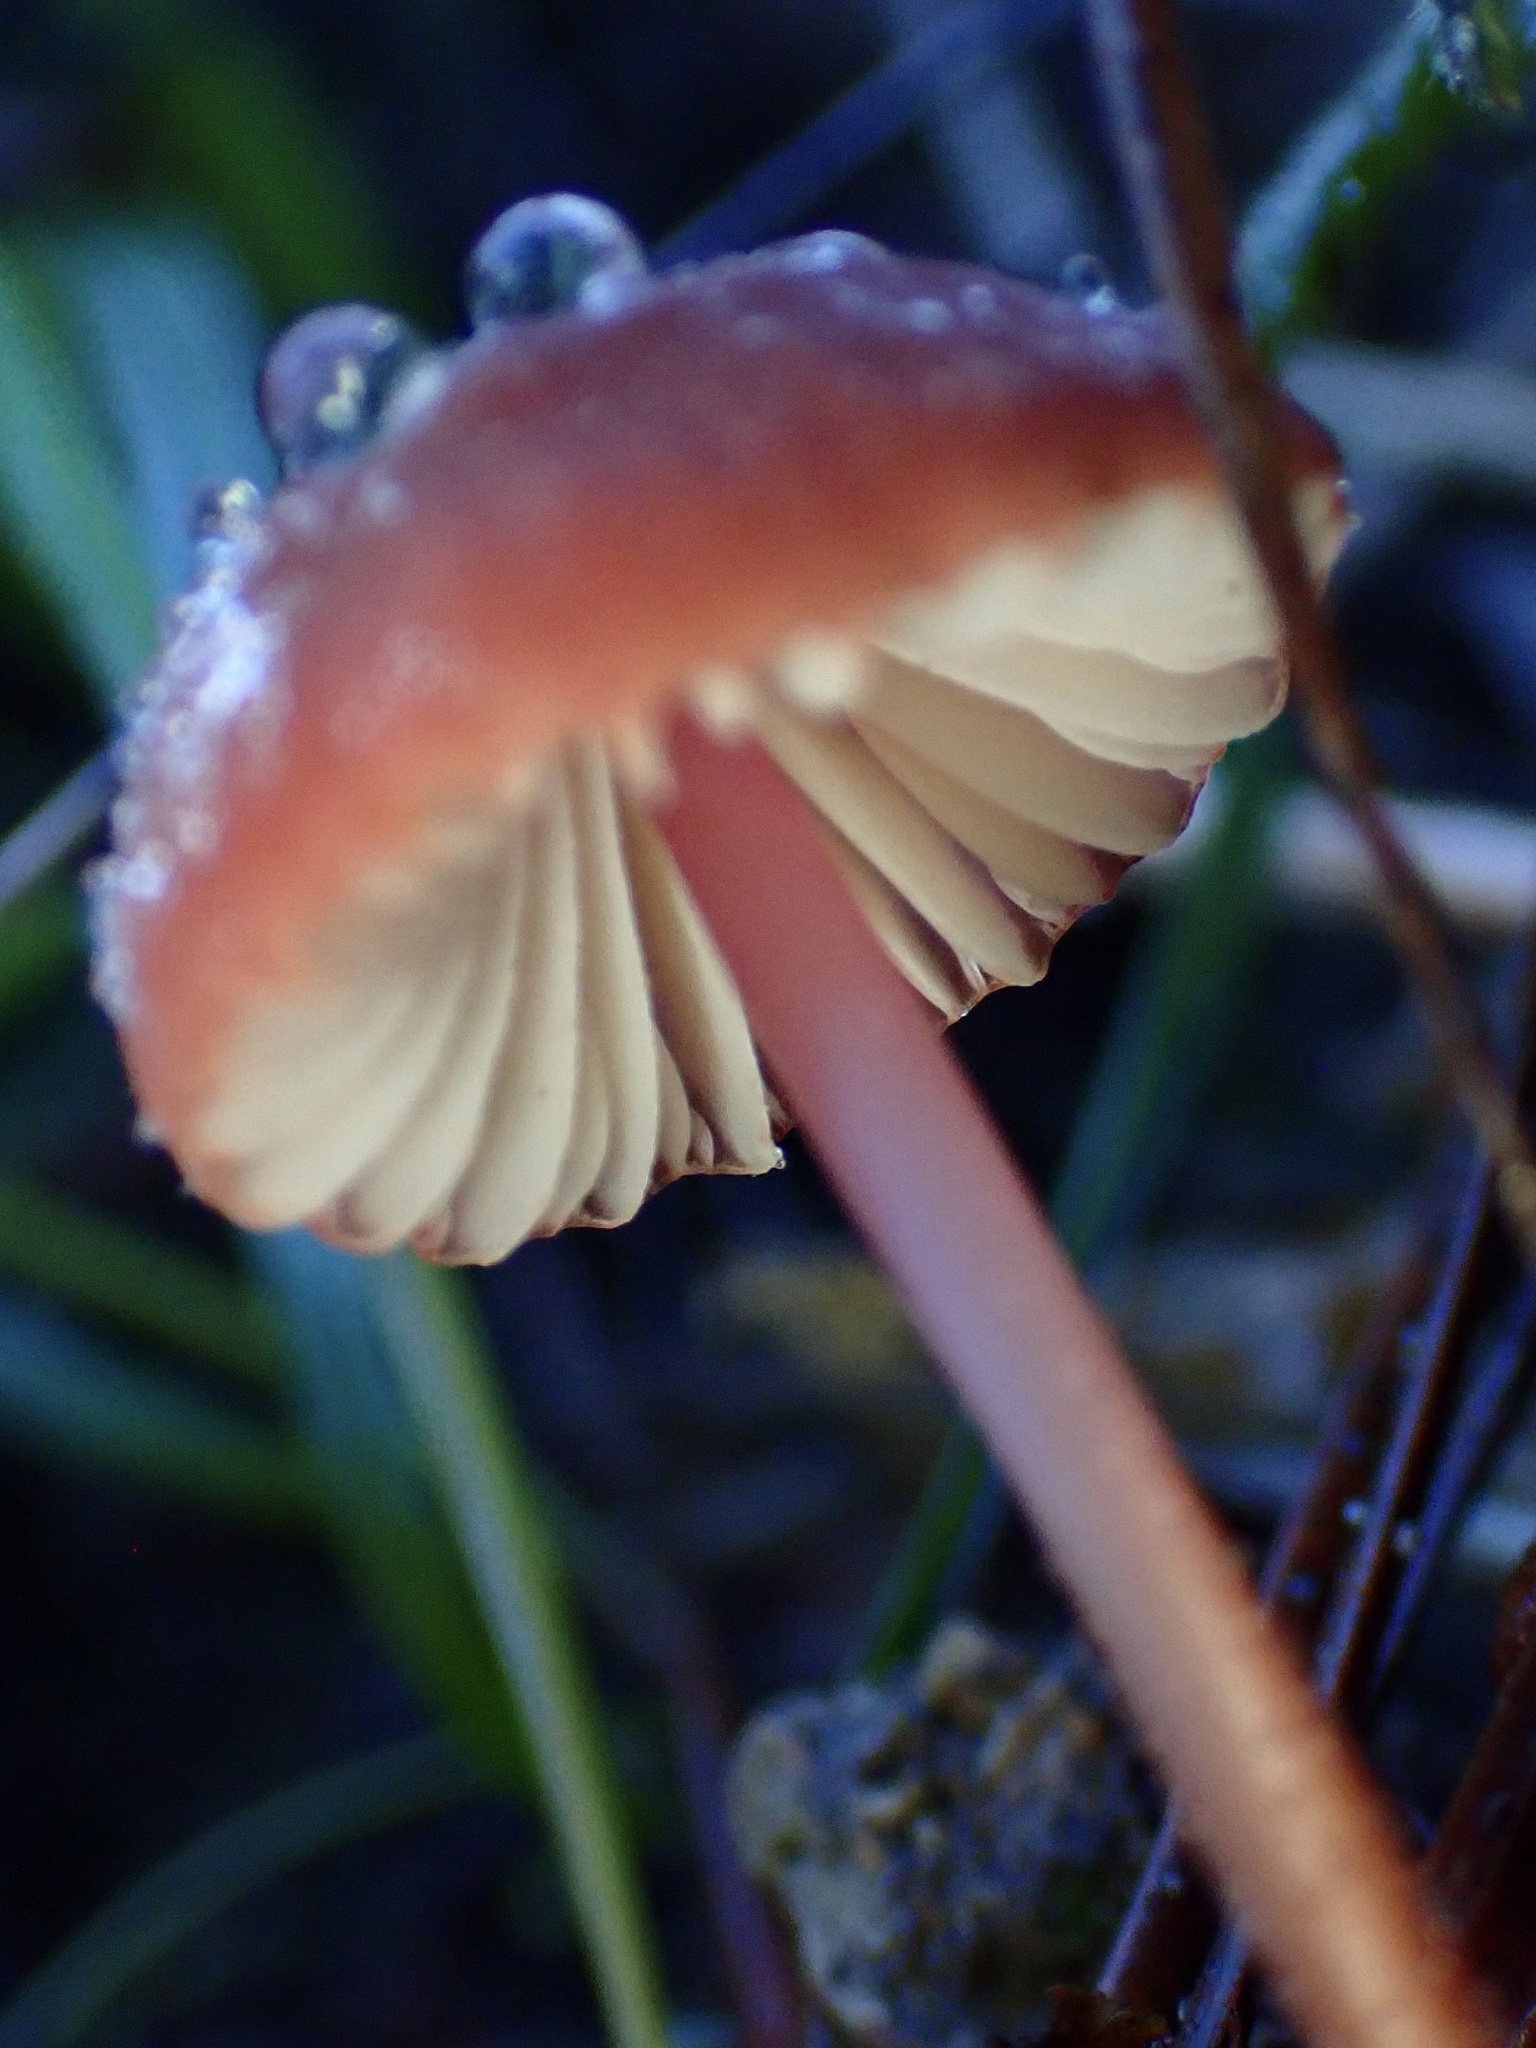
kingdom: Fungi
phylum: Basidiomycota
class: Agaricomycetes
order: Agaricales
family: Marasmiaceae
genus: Marasmius
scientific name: Marasmius plicatulus
